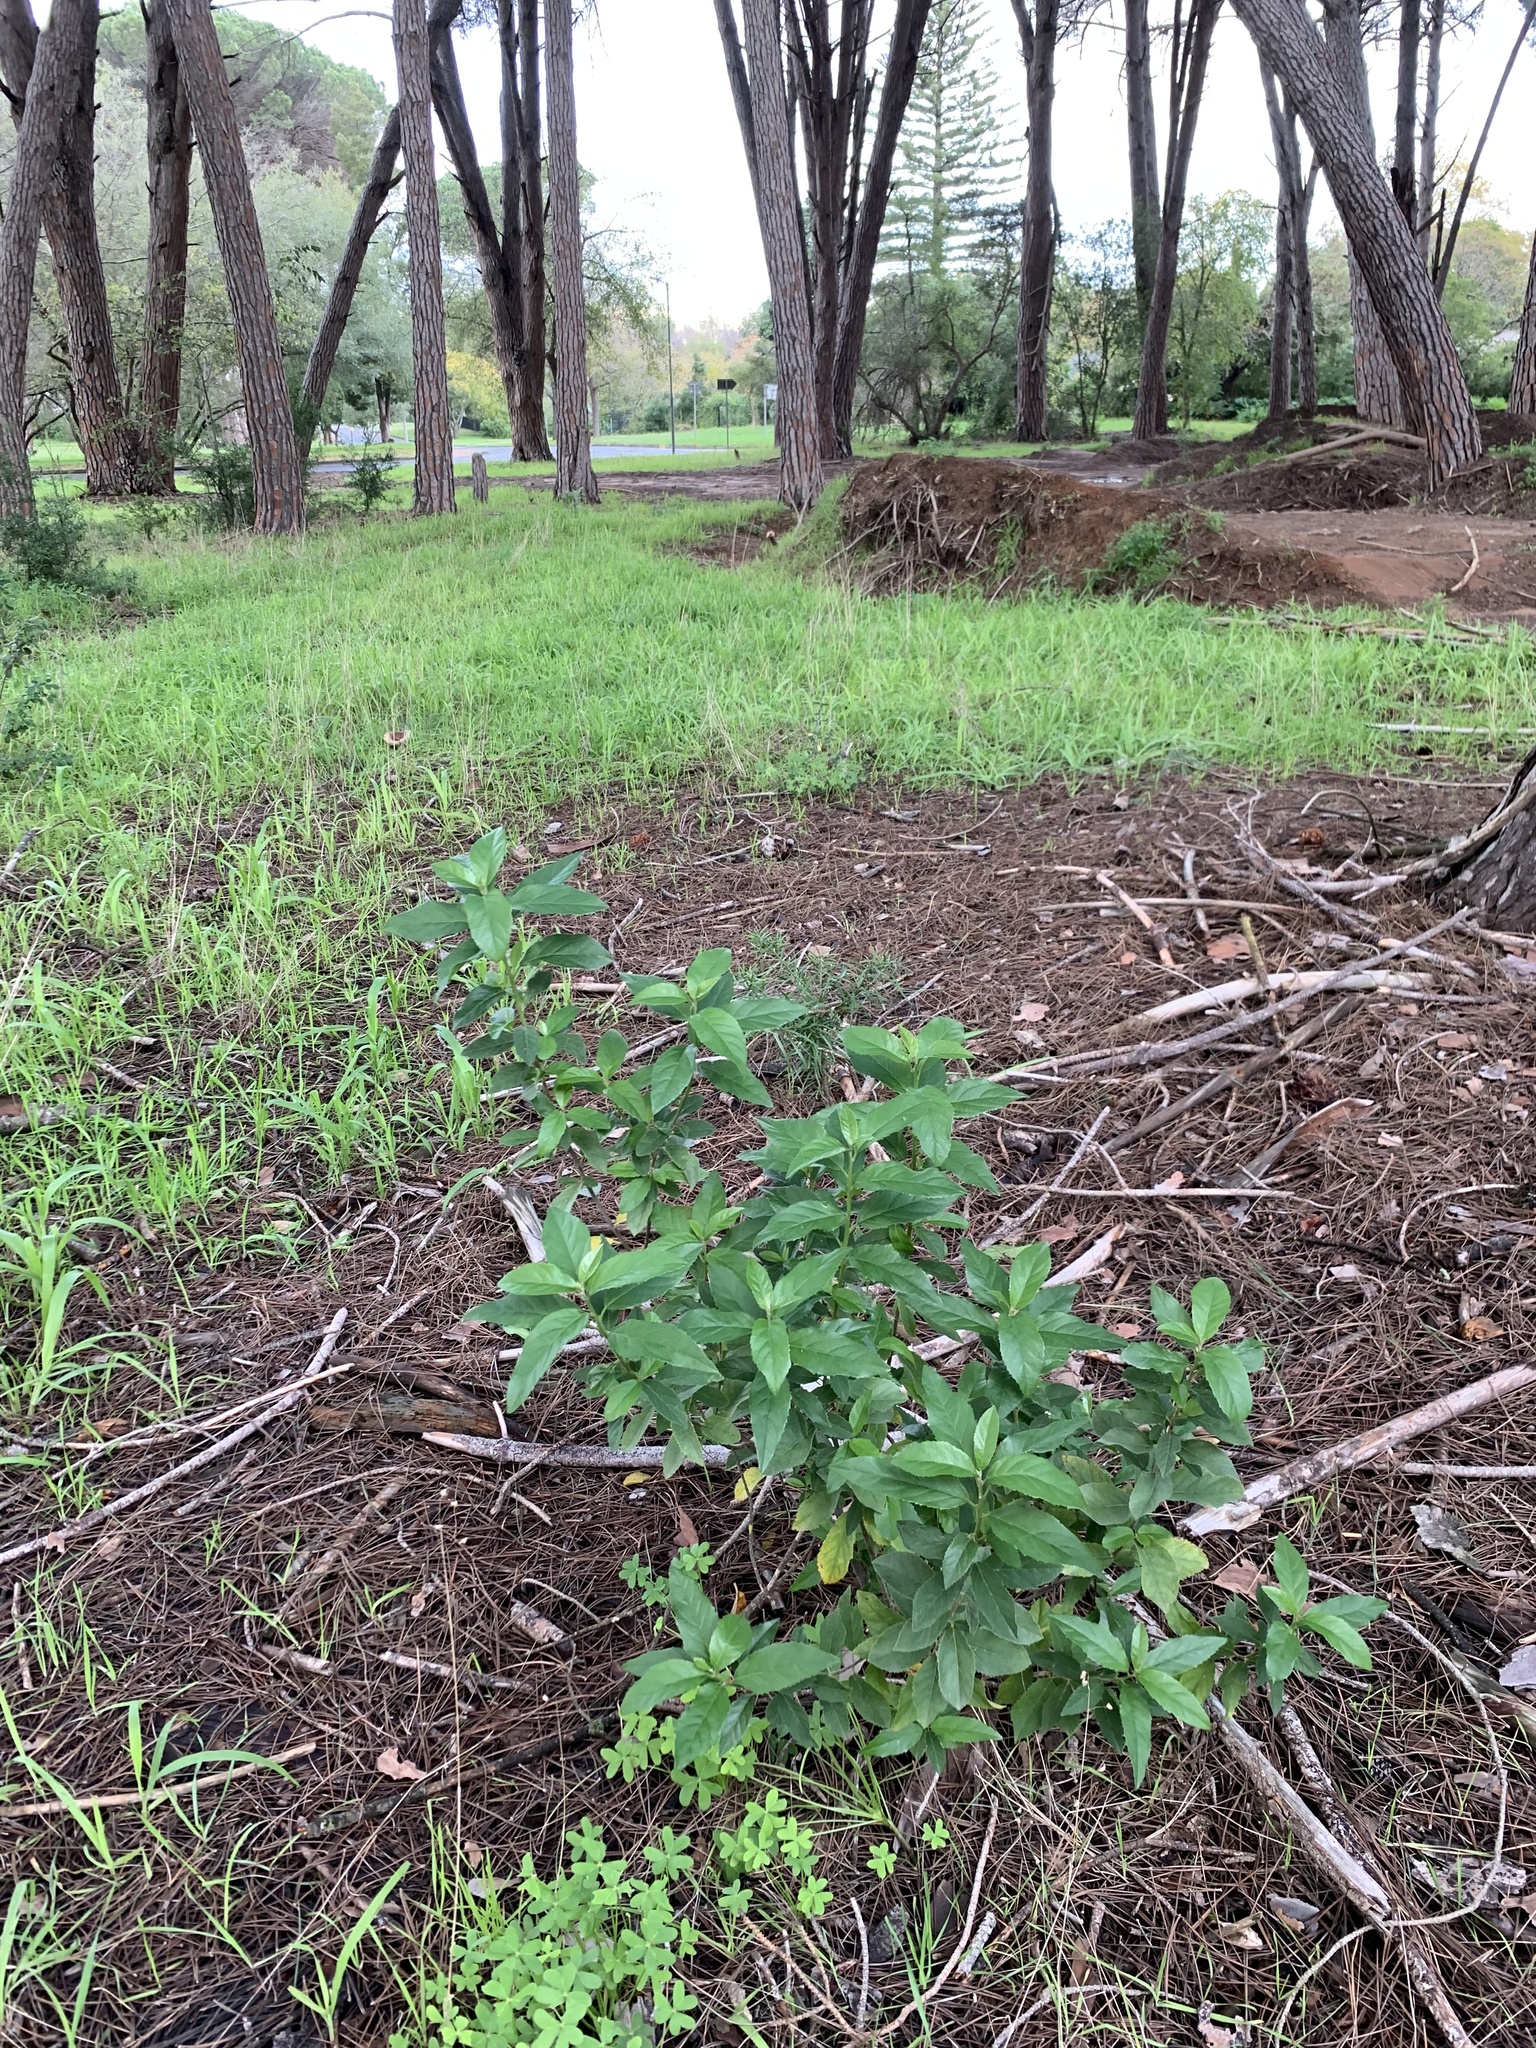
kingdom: Plantae
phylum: Tracheophyta
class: Magnoliopsida
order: Malpighiales
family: Achariaceae
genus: Kiggelaria
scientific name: Kiggelaria africana
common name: Wild peach
